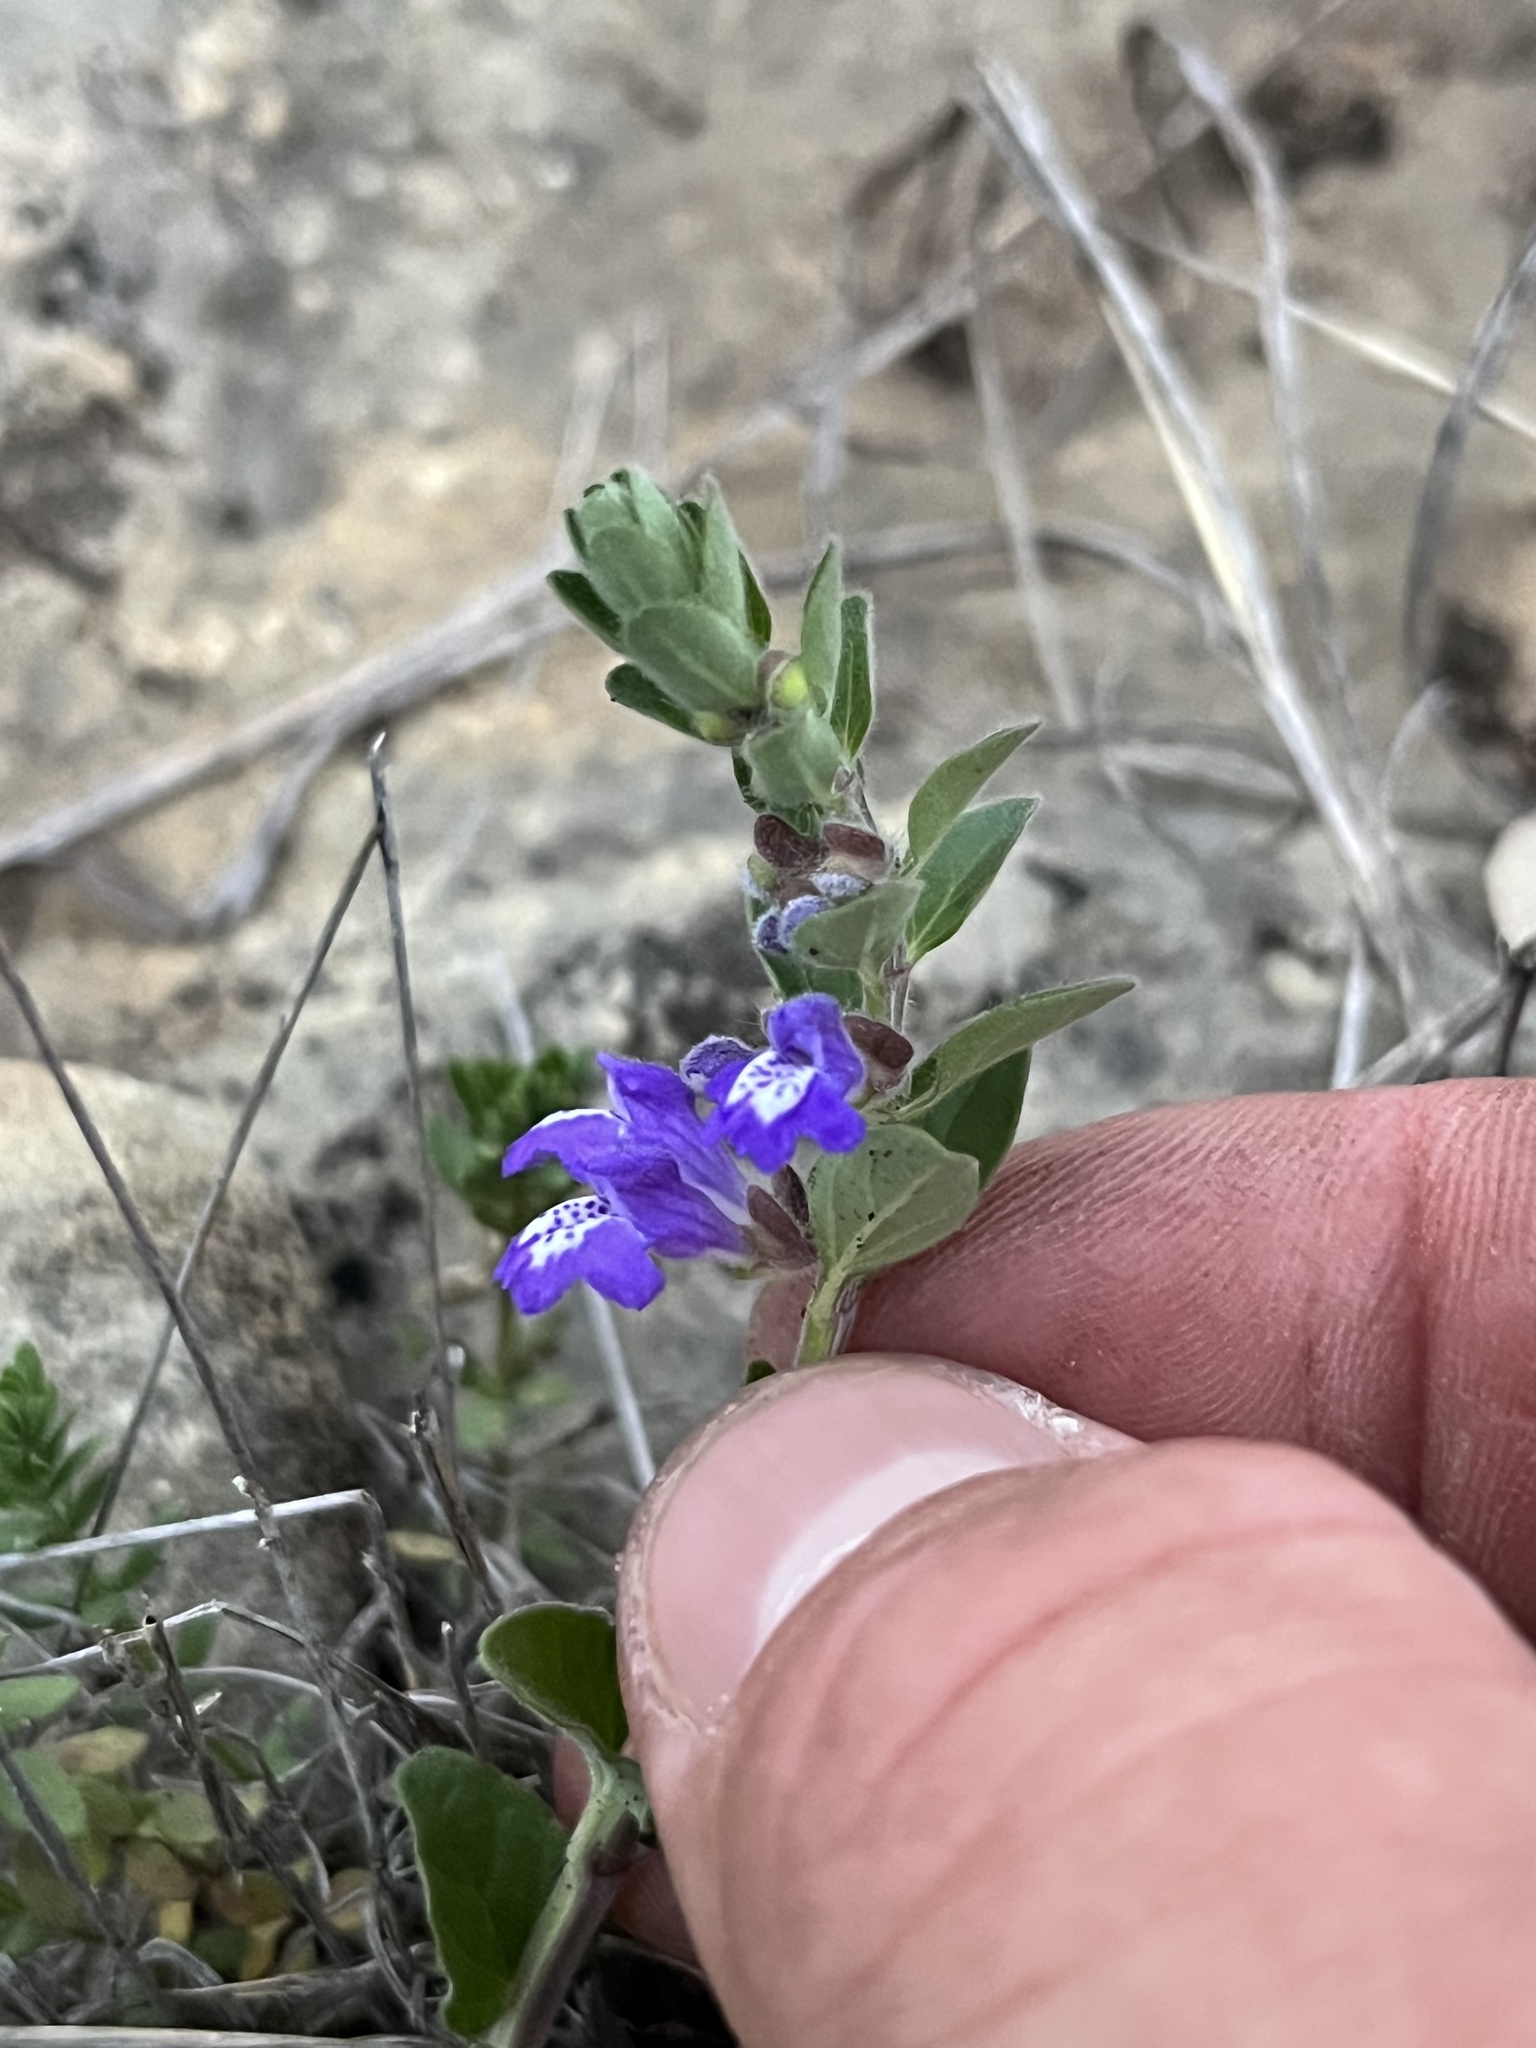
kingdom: Plantae
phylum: Tracheophyta
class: Magnoliopsida
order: Lamiales
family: Lamiaceae
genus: Scutellaria
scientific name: Scutellaria drummondii
